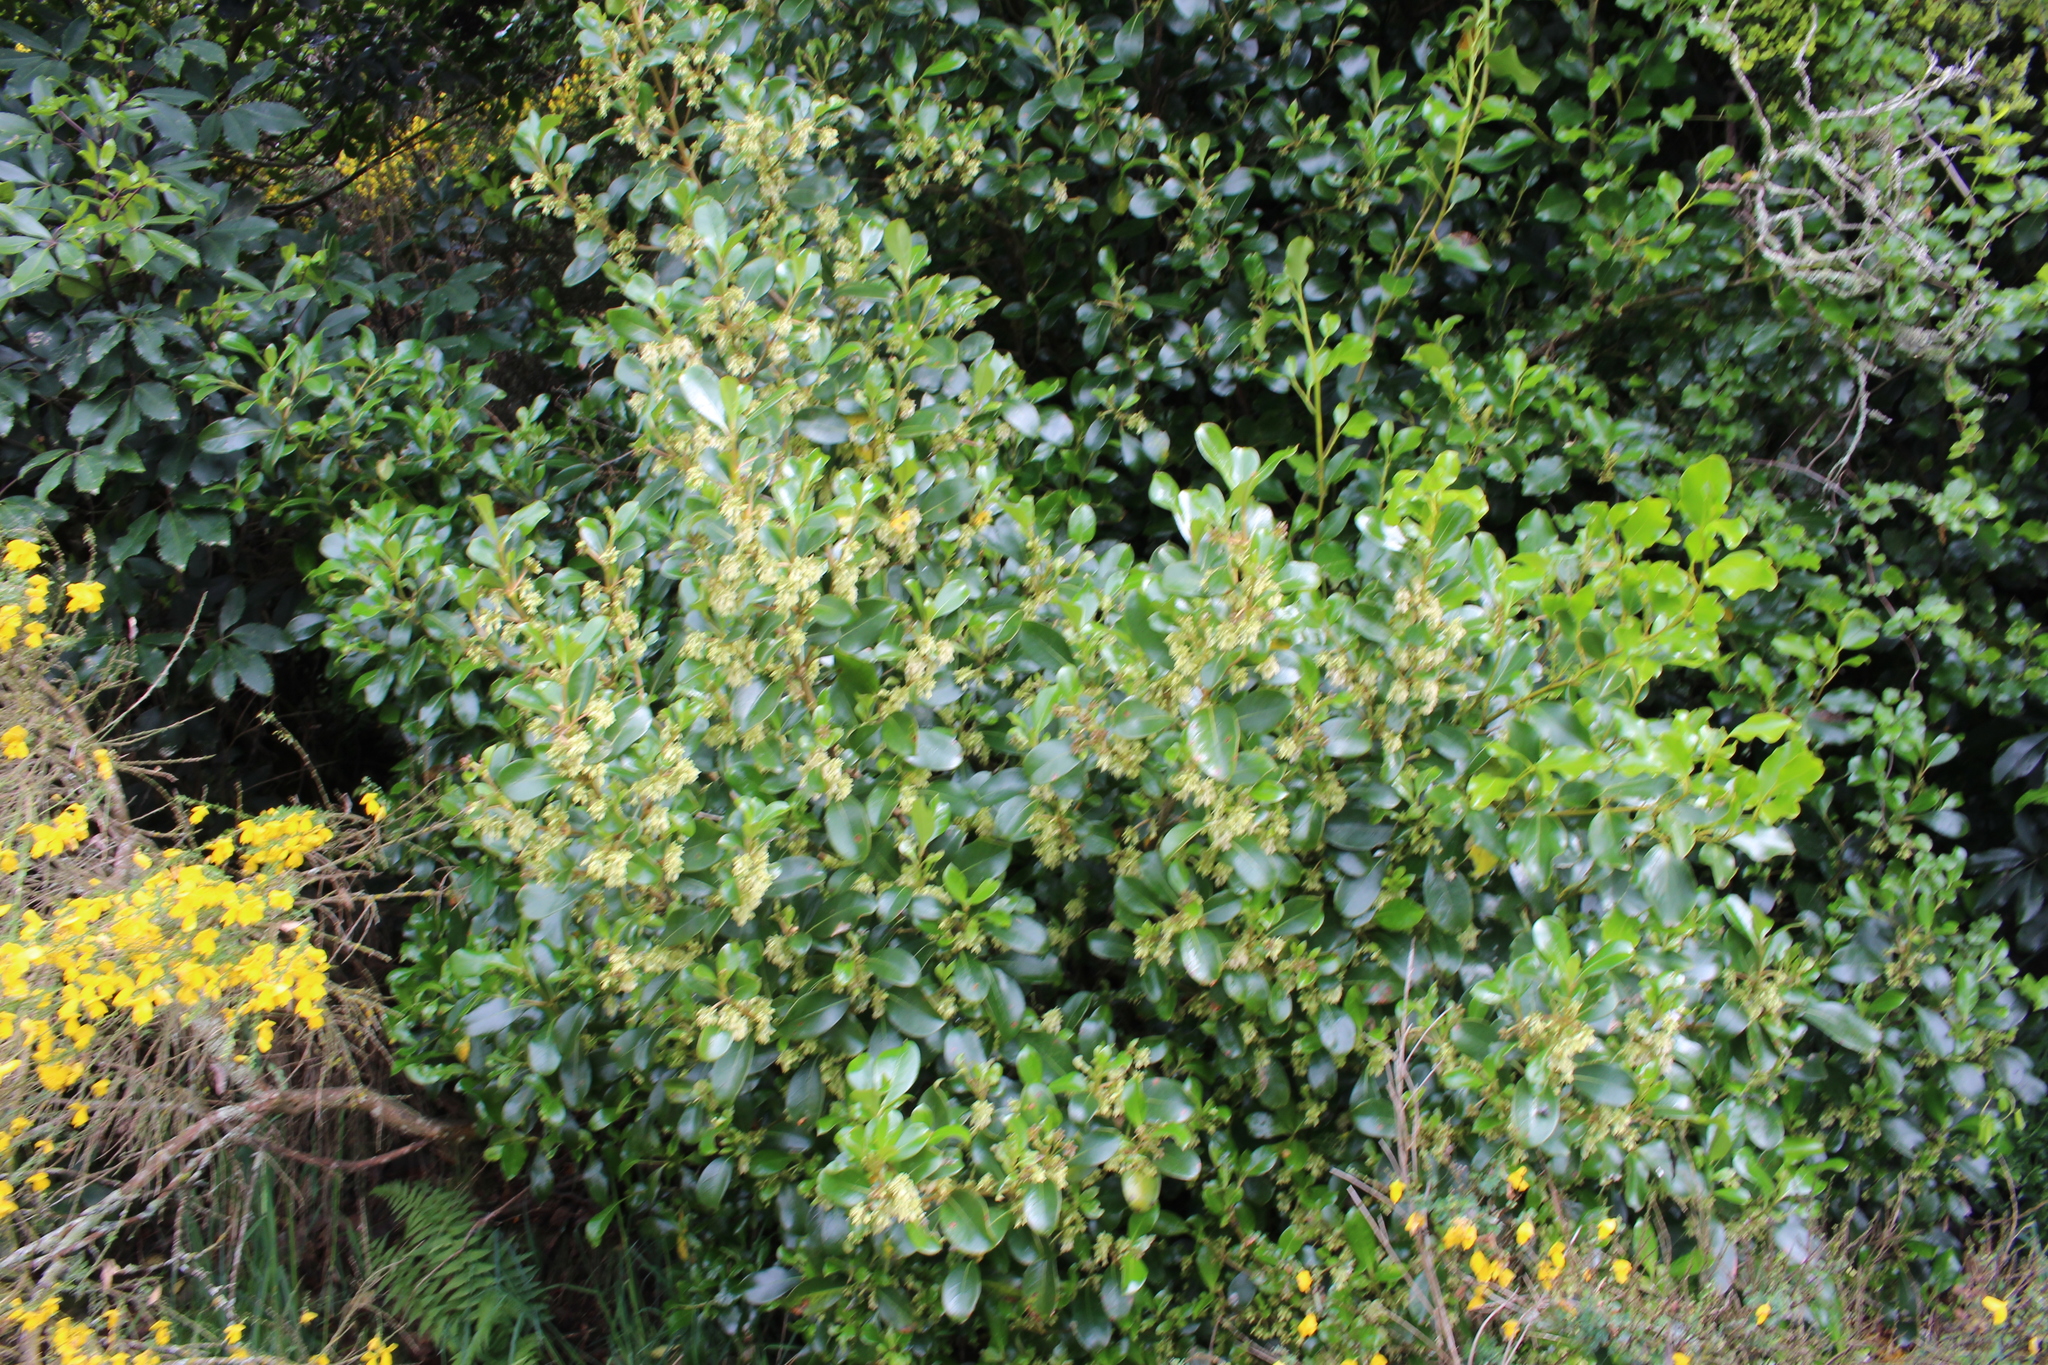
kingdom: Plantae
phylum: Tracheophyta
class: Magnoliopsida
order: Gentianales
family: Rubiaceae
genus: Coprosma
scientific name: Coprosma lucida
